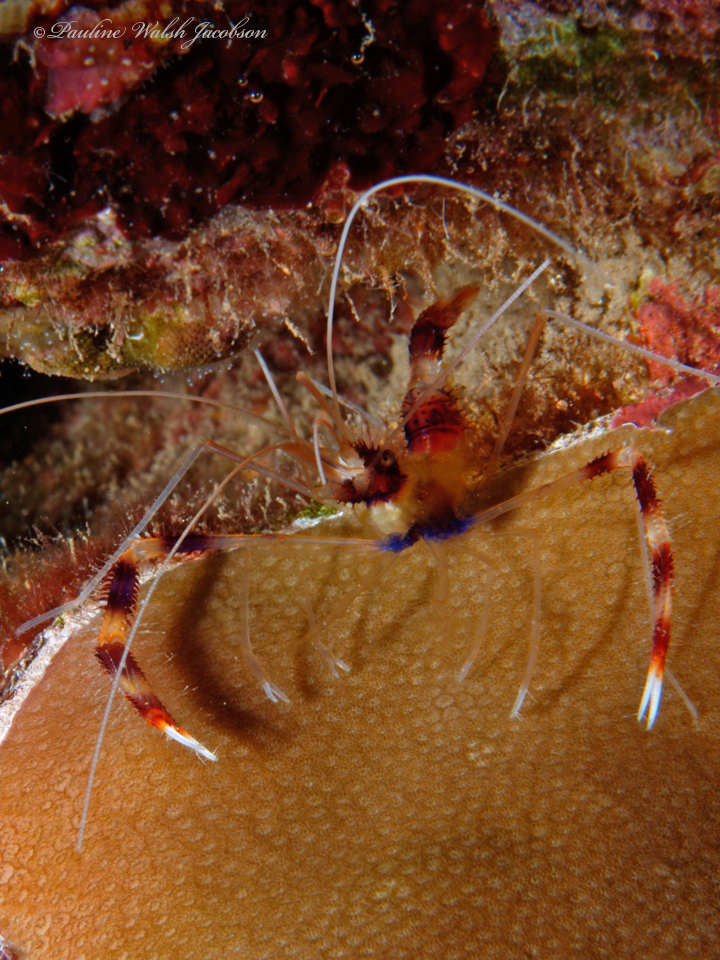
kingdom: Animalia
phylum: Arthropoda
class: Malacostraca
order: Decapoda
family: Stenopodidae
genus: Stenopus
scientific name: Stenopus hispidus
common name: Banded coral shrimp
